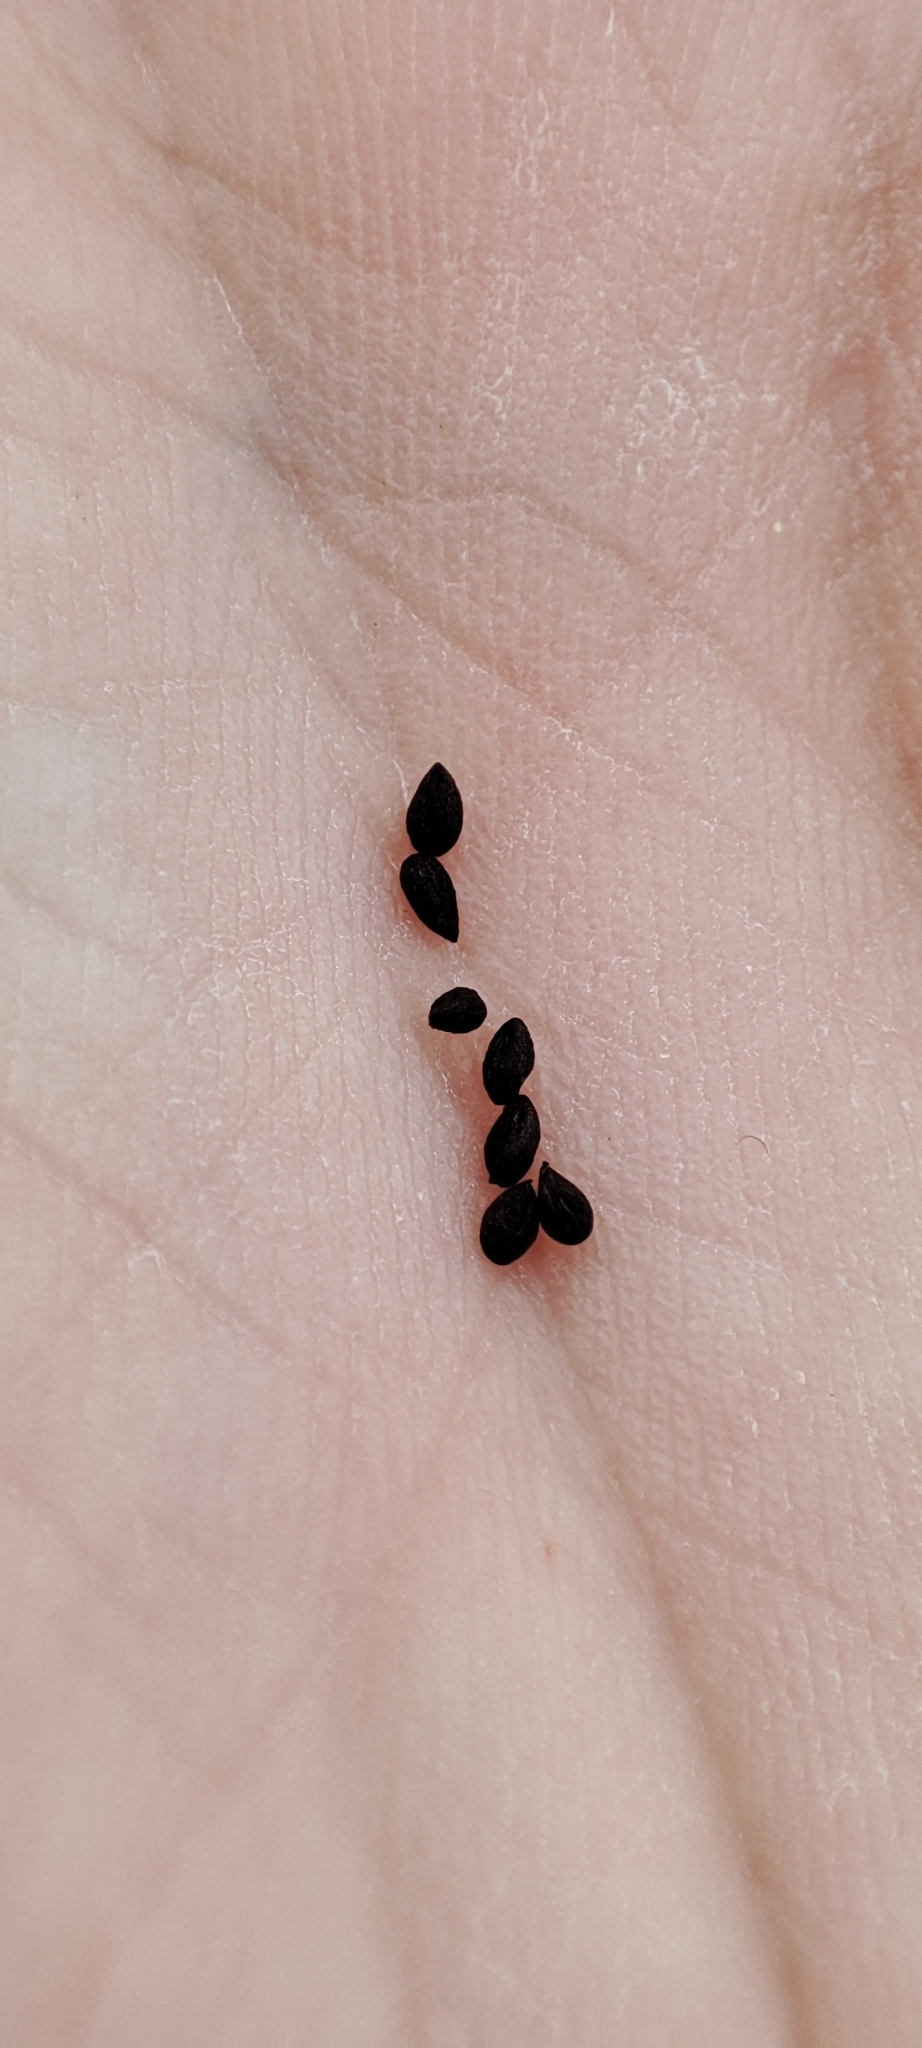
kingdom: Plantae
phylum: Tracheophyta
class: Magnoliopsida
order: Lamiales
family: Orobanchaceae
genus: Pedicularis
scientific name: Pedicularis palustris
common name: Marsh lousewort
